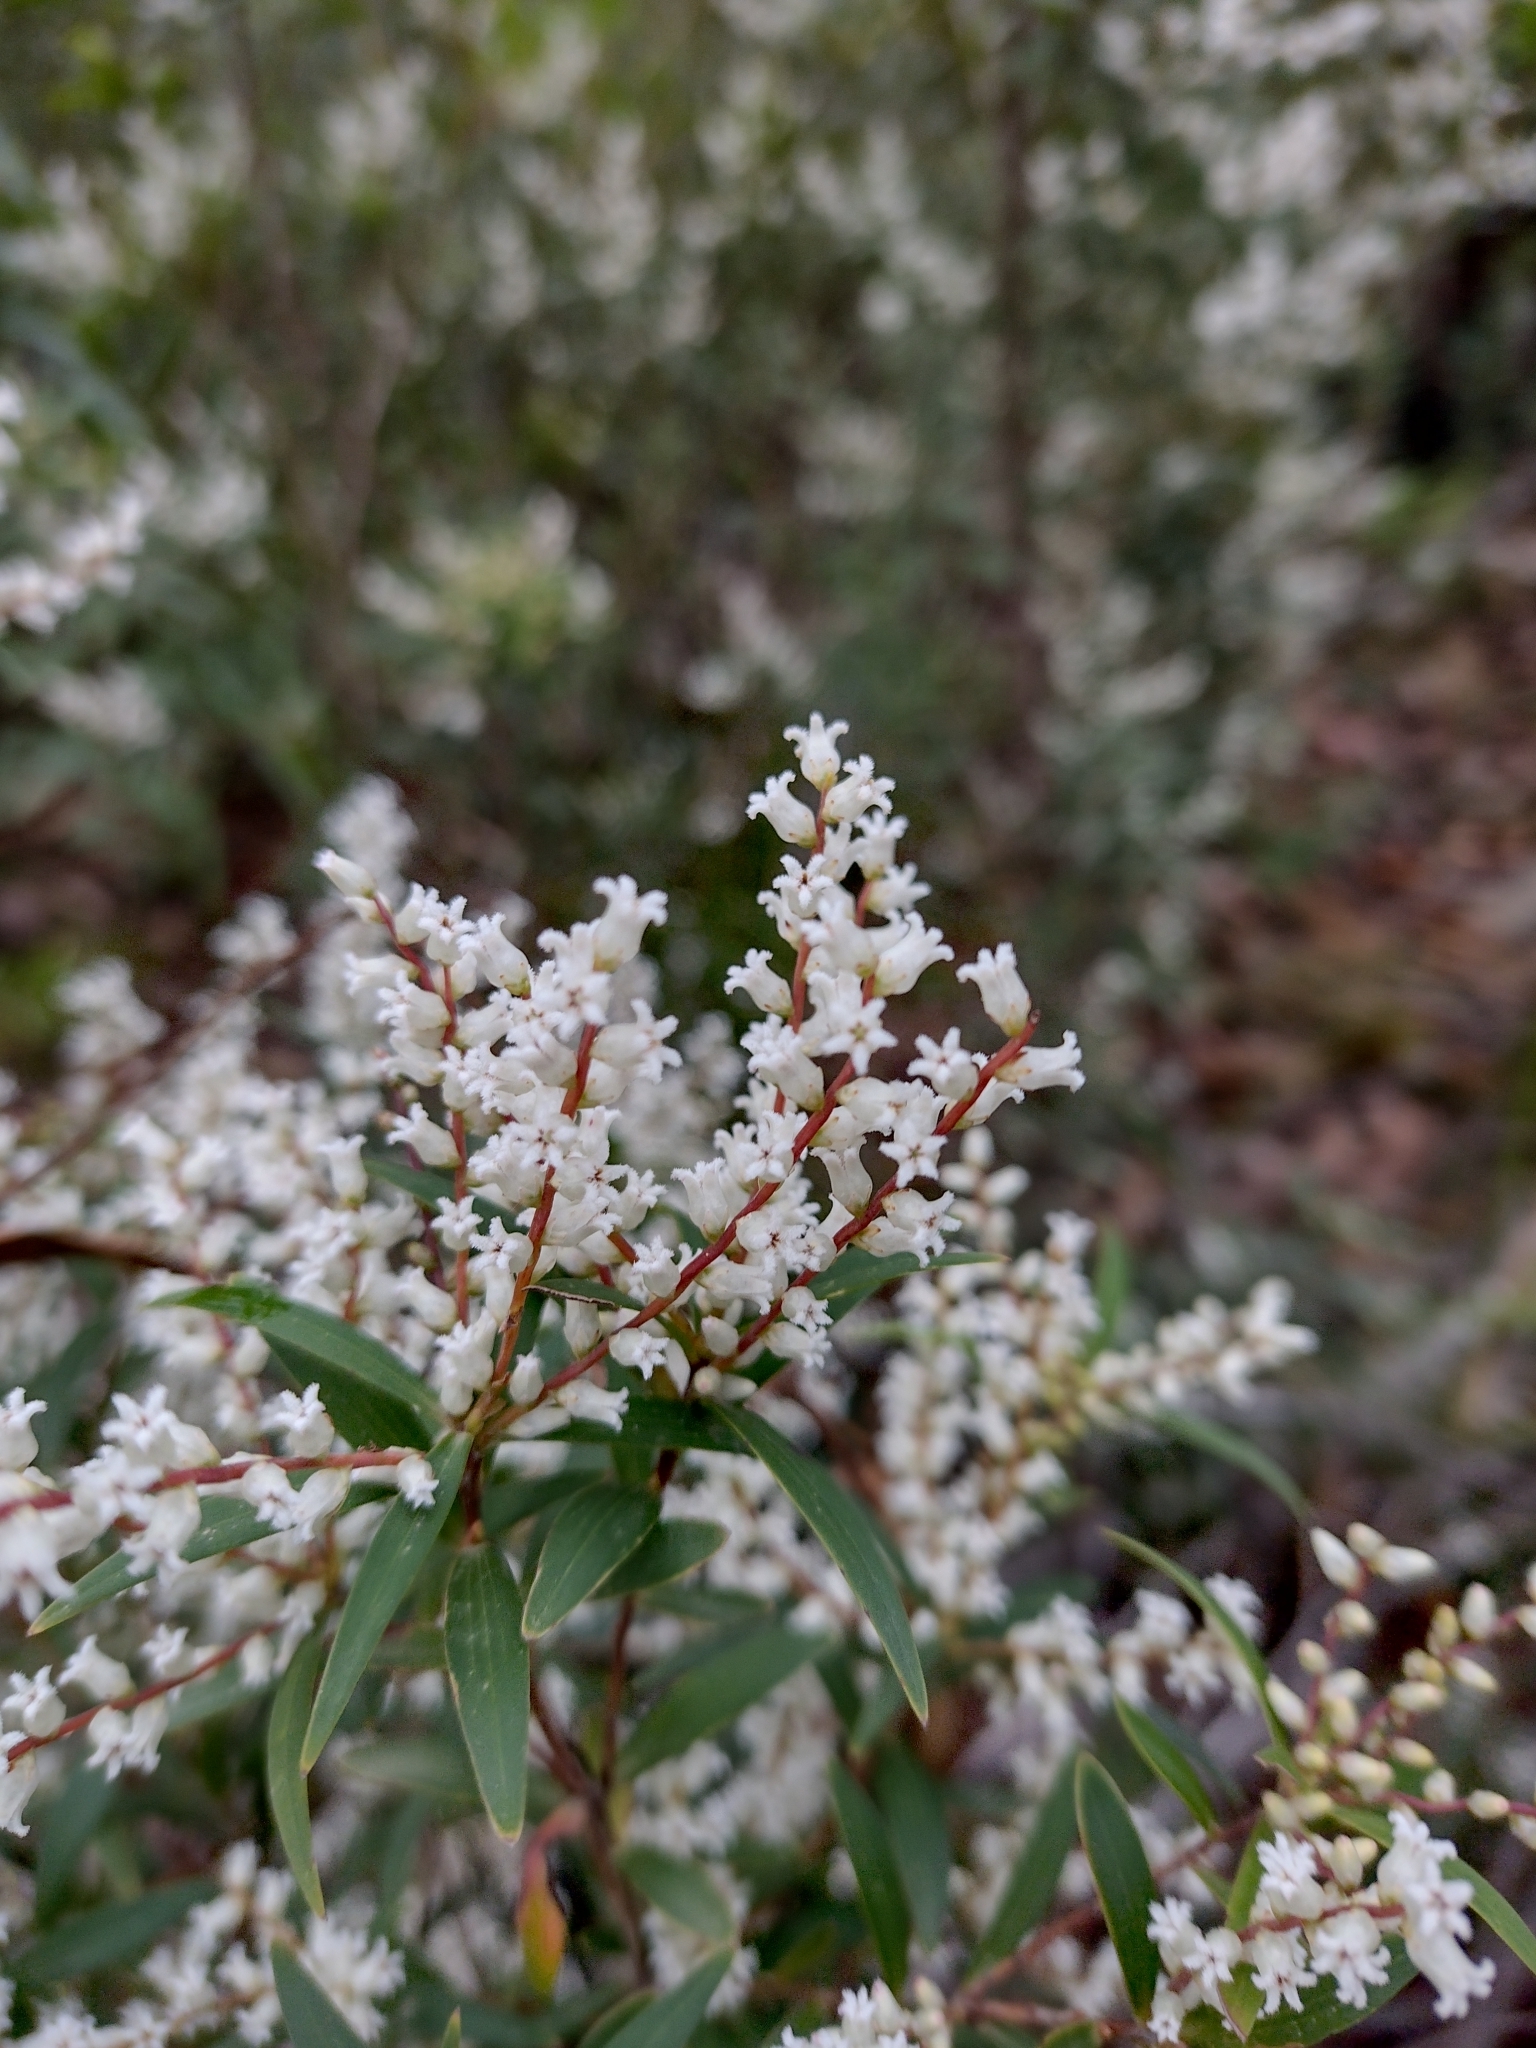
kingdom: Plantae
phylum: Tracheophyta
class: Magnoliopsida
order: Ericales
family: Ericaceae
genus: Leucopogon
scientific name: Leucopogon lanceolatus
